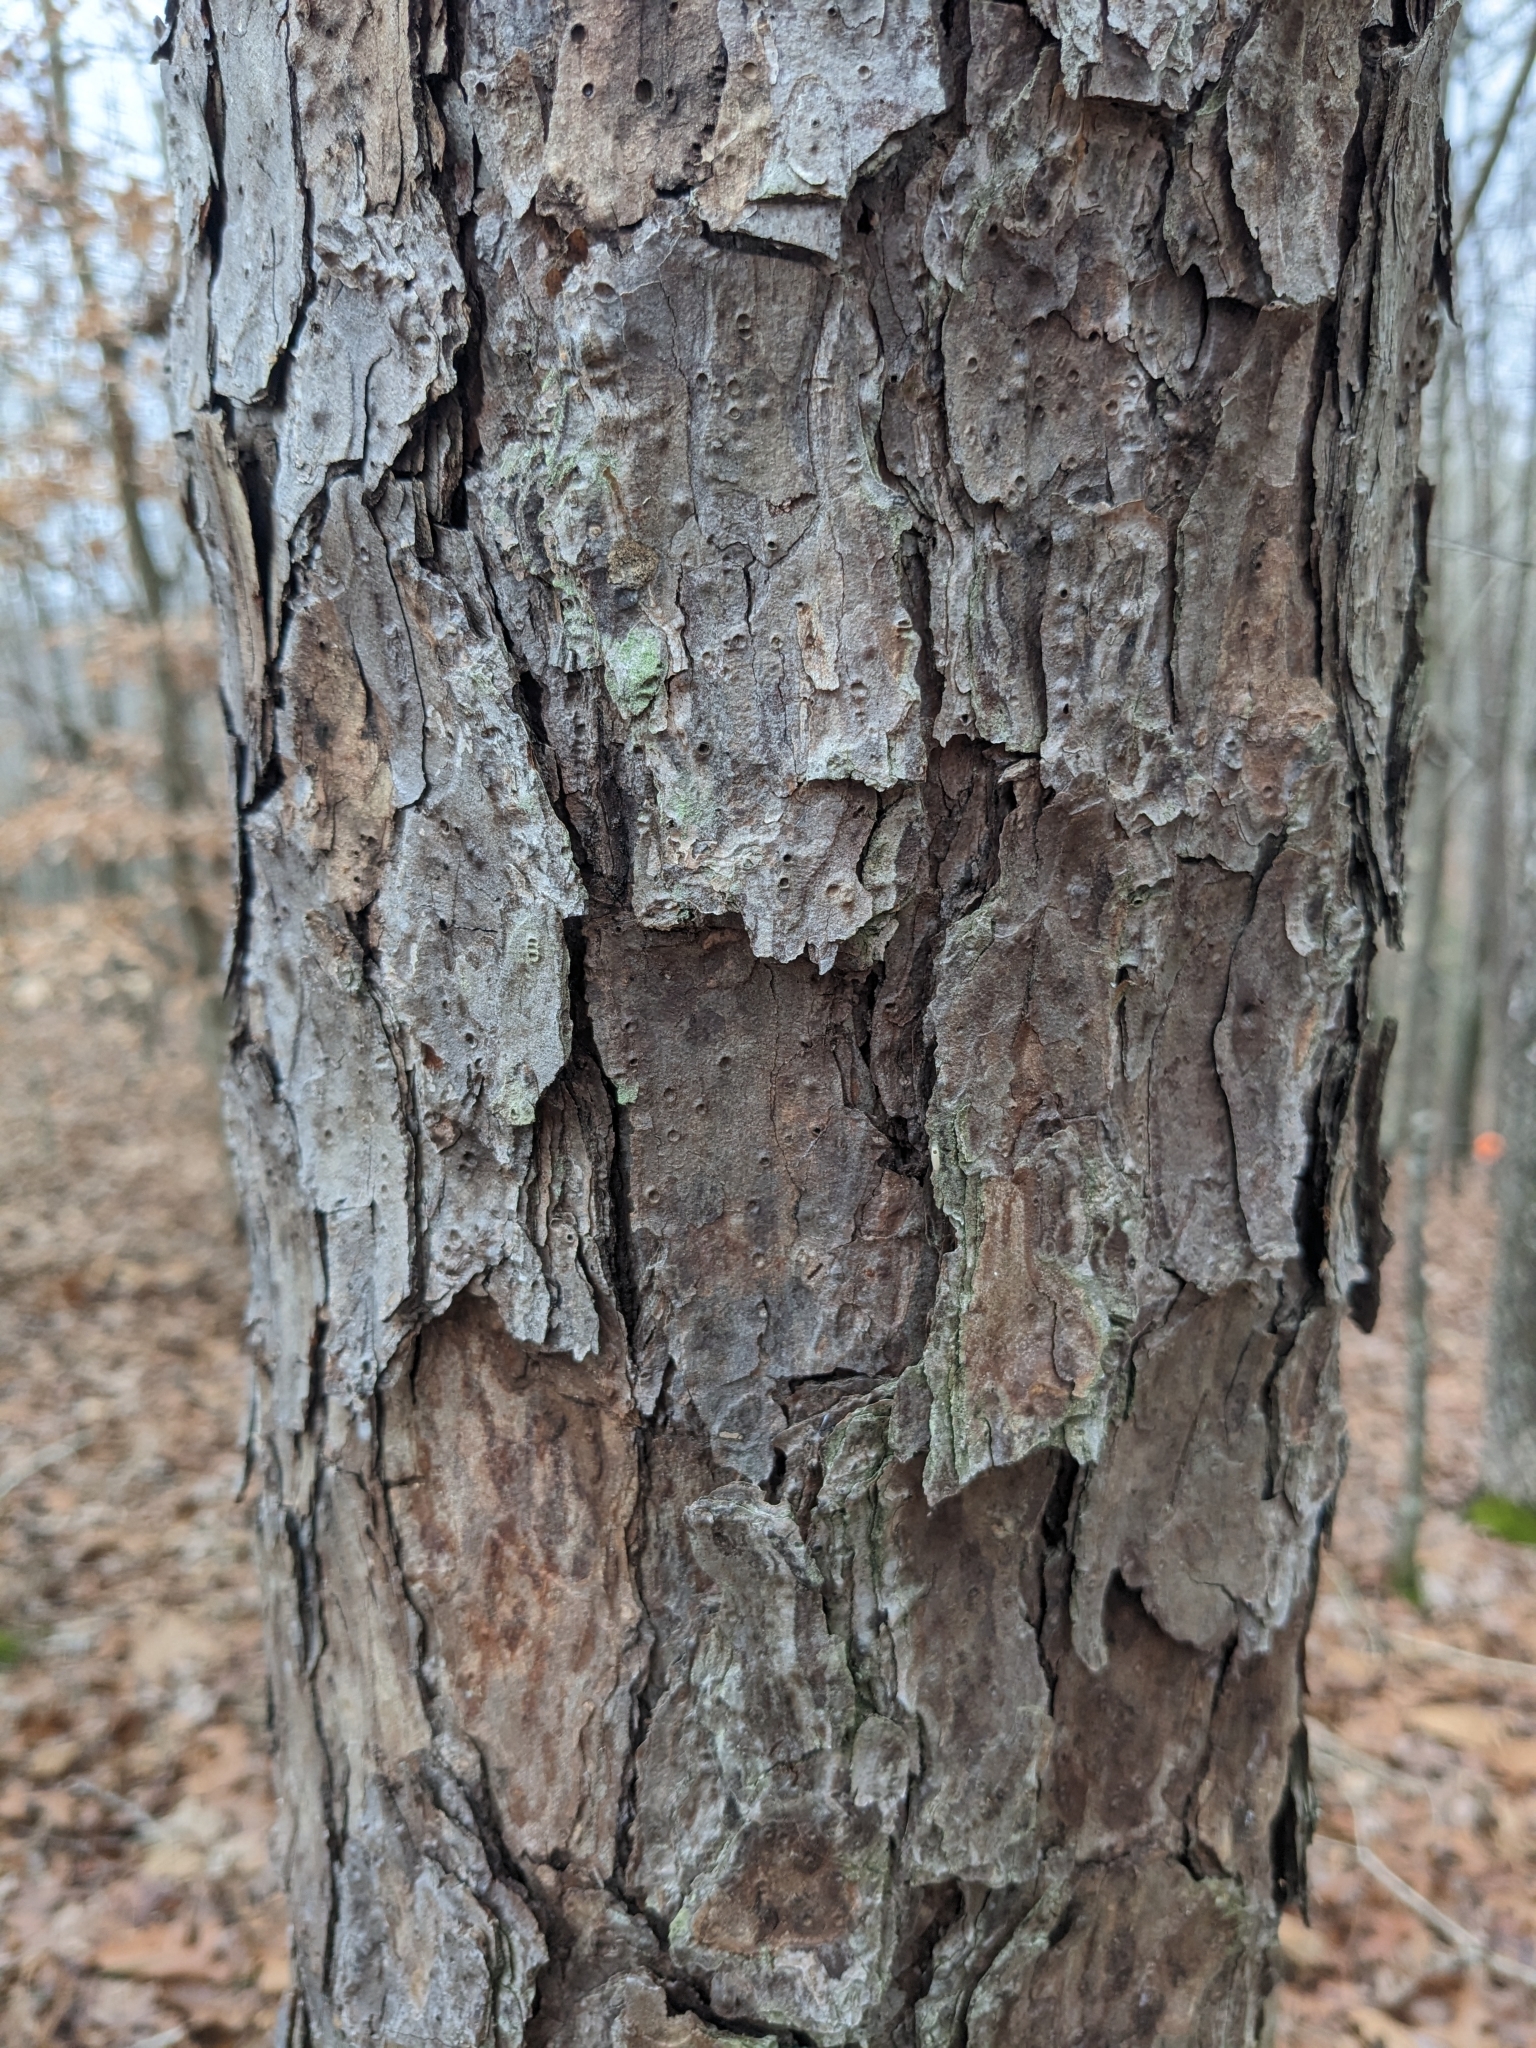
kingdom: Plantae
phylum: Tracheophyta
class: Pinopsida
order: Pinales
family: Pinaceae
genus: Pinus
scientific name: Pinus echinata
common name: Shortleaf pine
